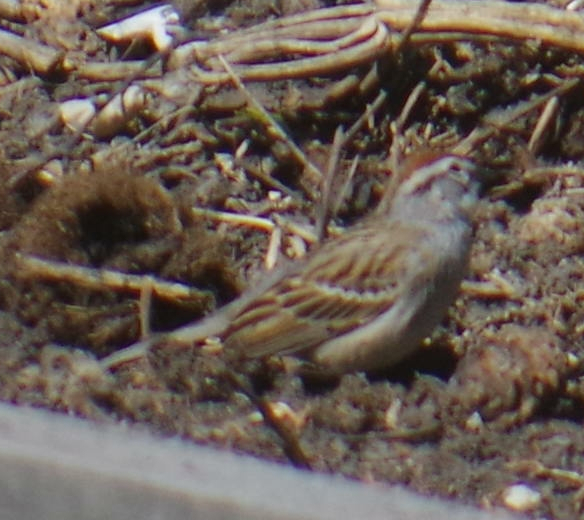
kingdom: Animalia
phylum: Chordata
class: Aves
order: Passeriformes
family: Passerellidae
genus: Spizella
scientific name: Spizella passerina
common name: Chipping sparrow
